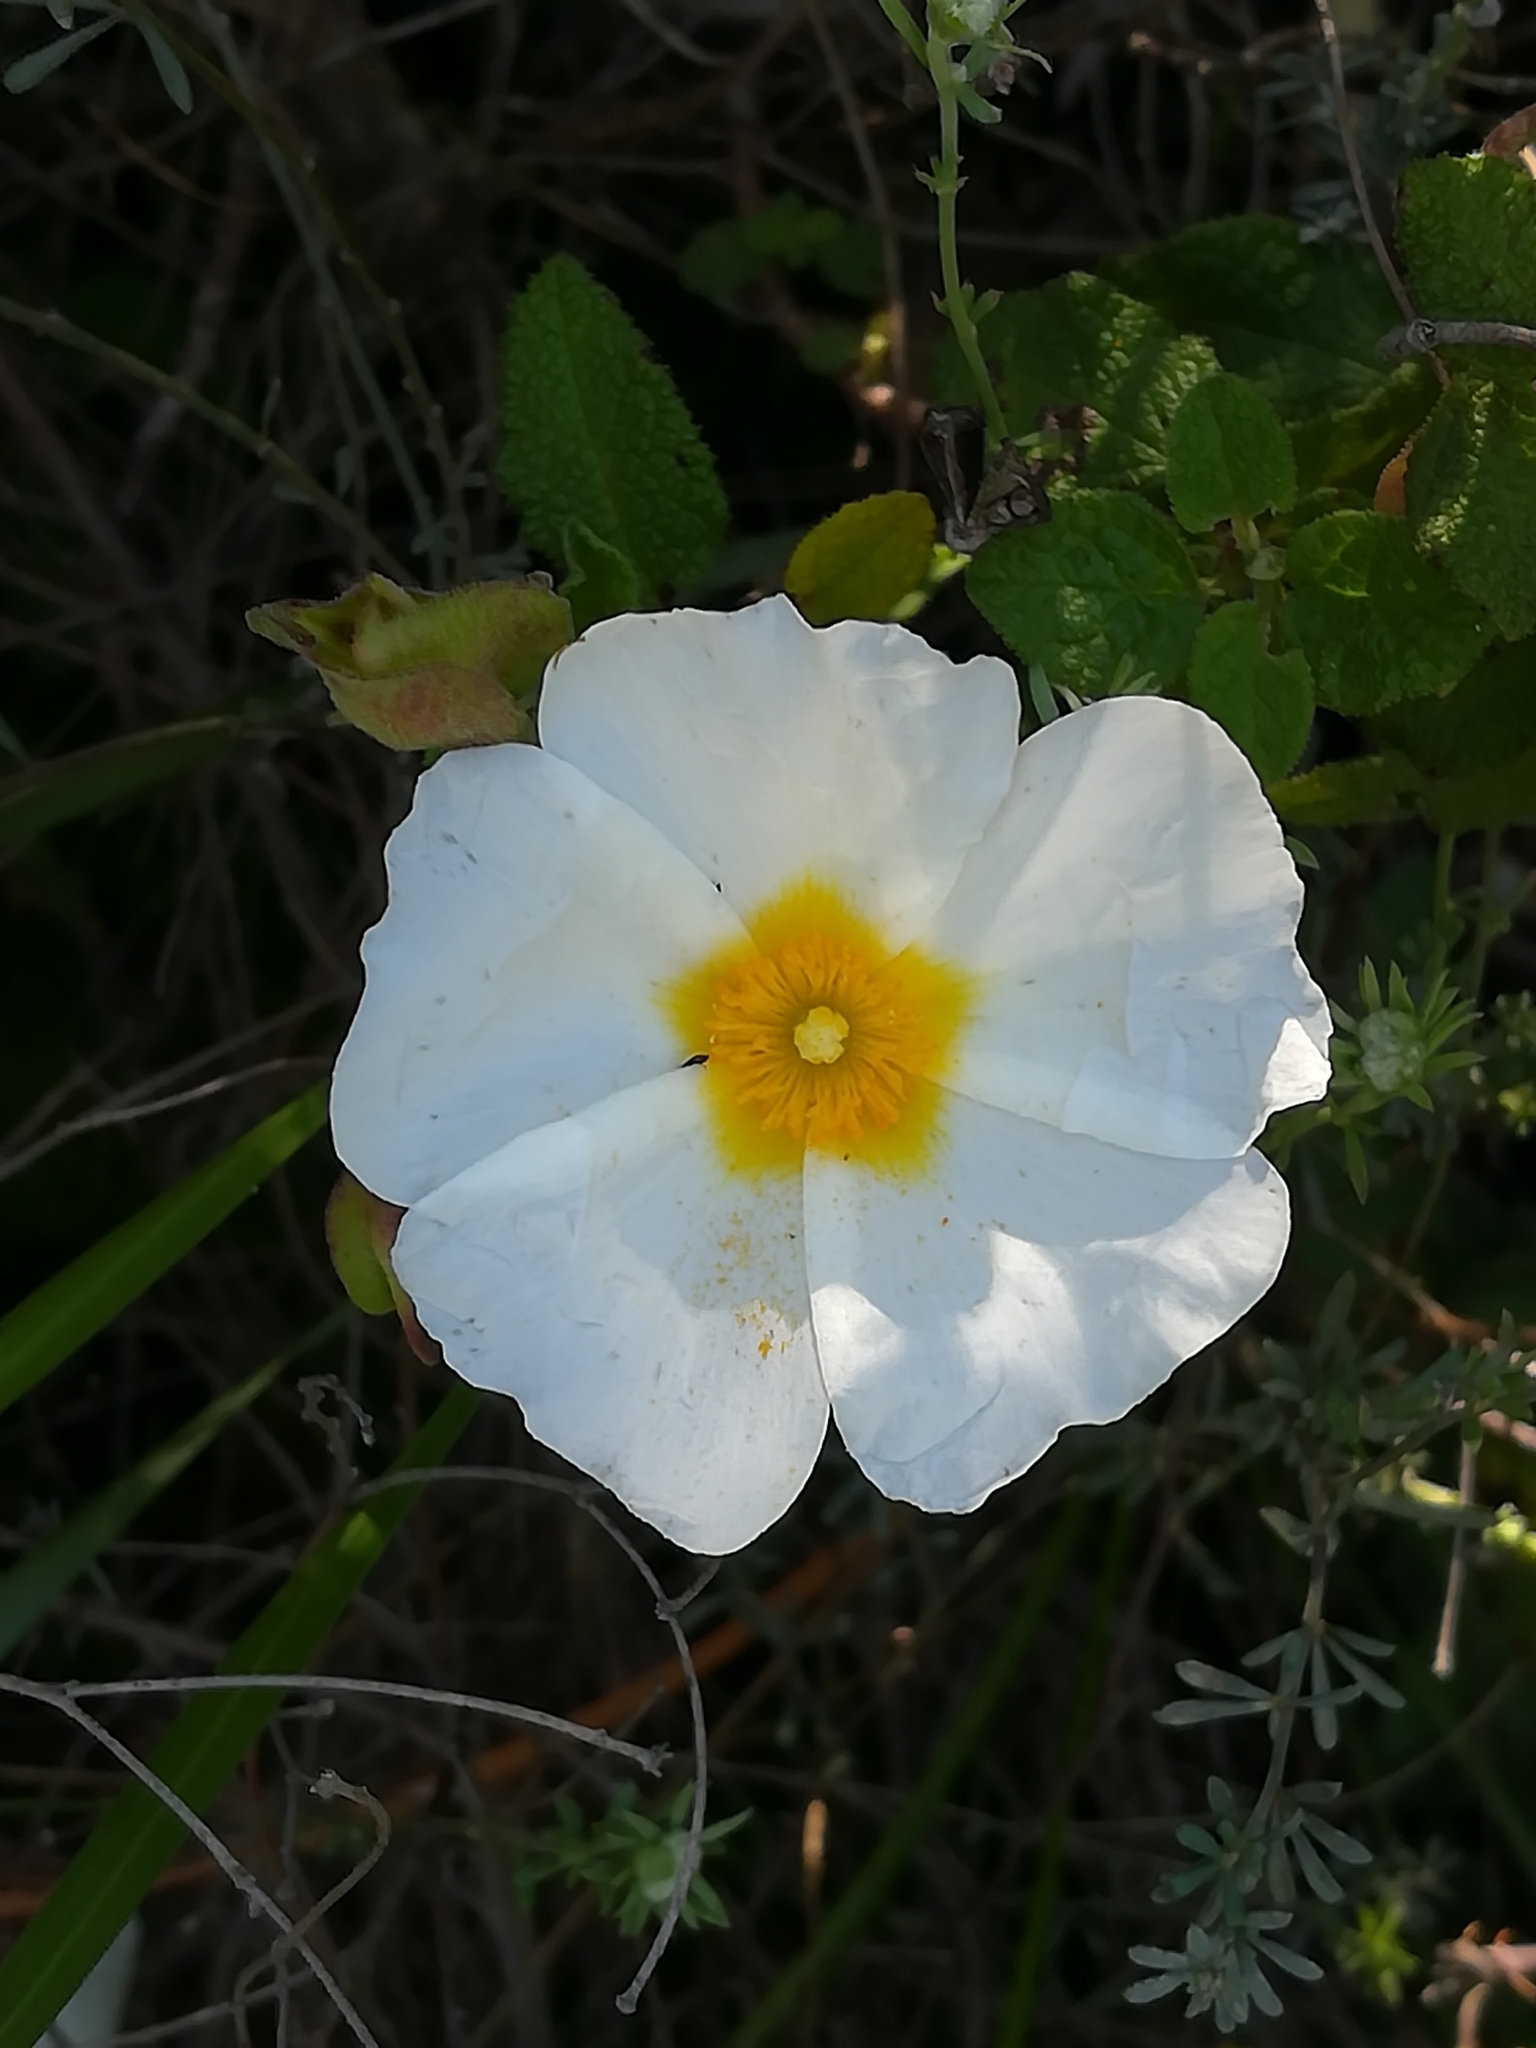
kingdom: Plantae
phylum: Tracheophyta
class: Magnoliopsida
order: Malvales
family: Cistaceae
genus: Cistus
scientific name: Cistus salviifolius
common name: Salvia cistus
